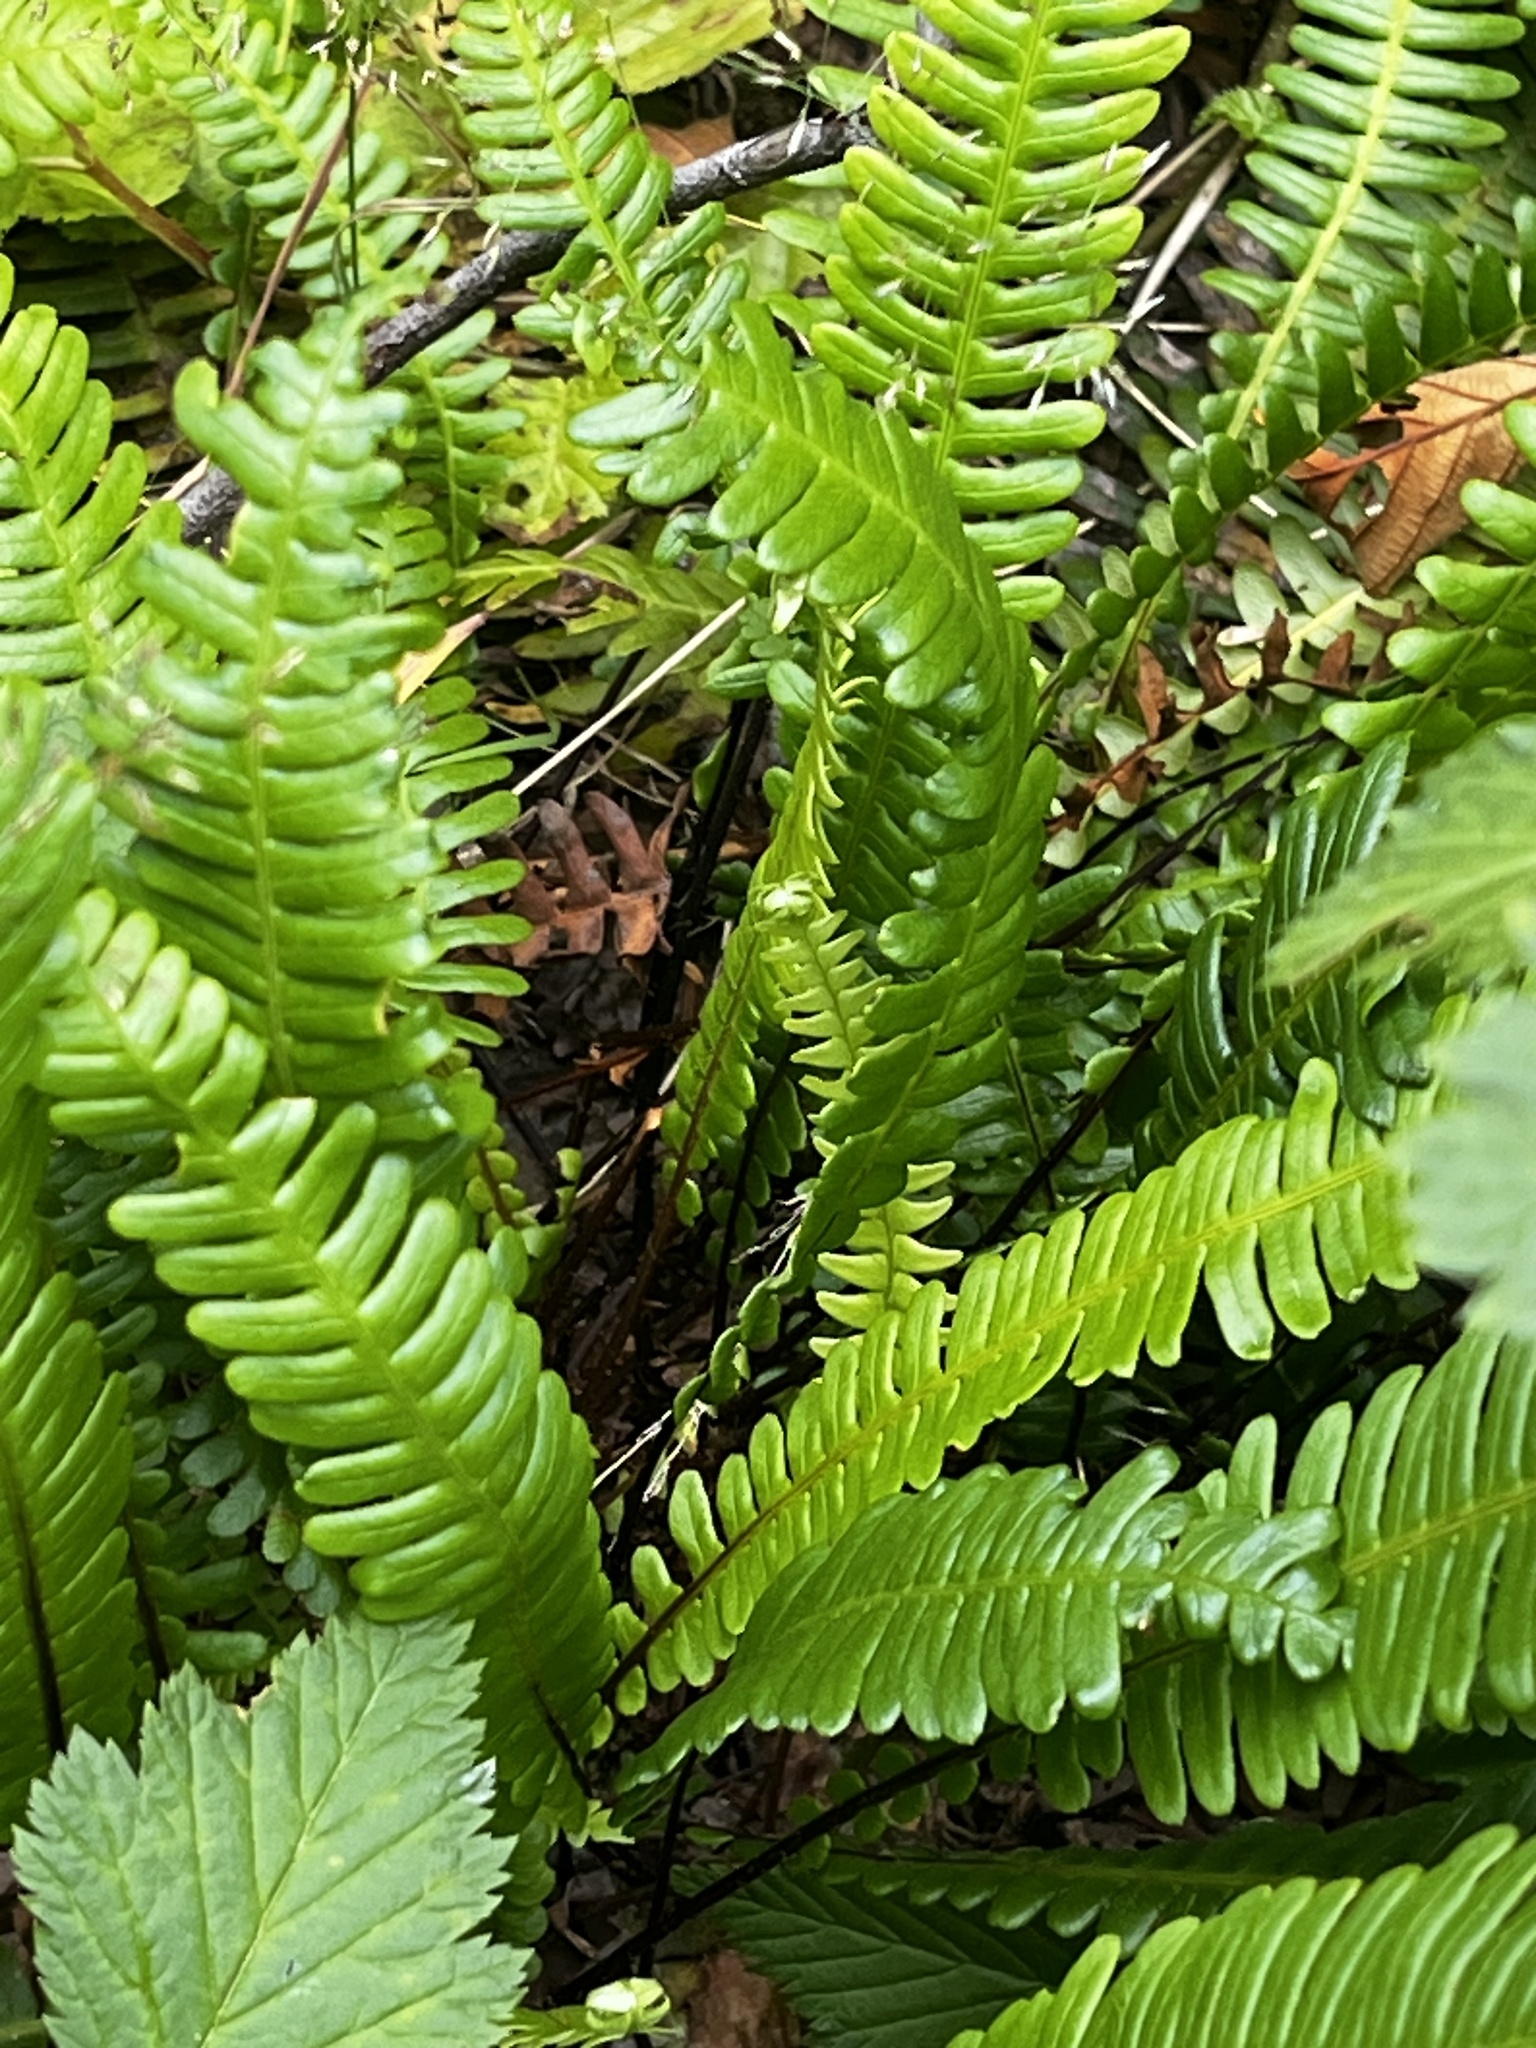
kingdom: Plantae
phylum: Tracheophyta
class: Polypodiopsida
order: Polypodiales
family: Blechnaceae
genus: Struthiopteris
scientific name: Struthiopteris spicant
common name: Deer fern
